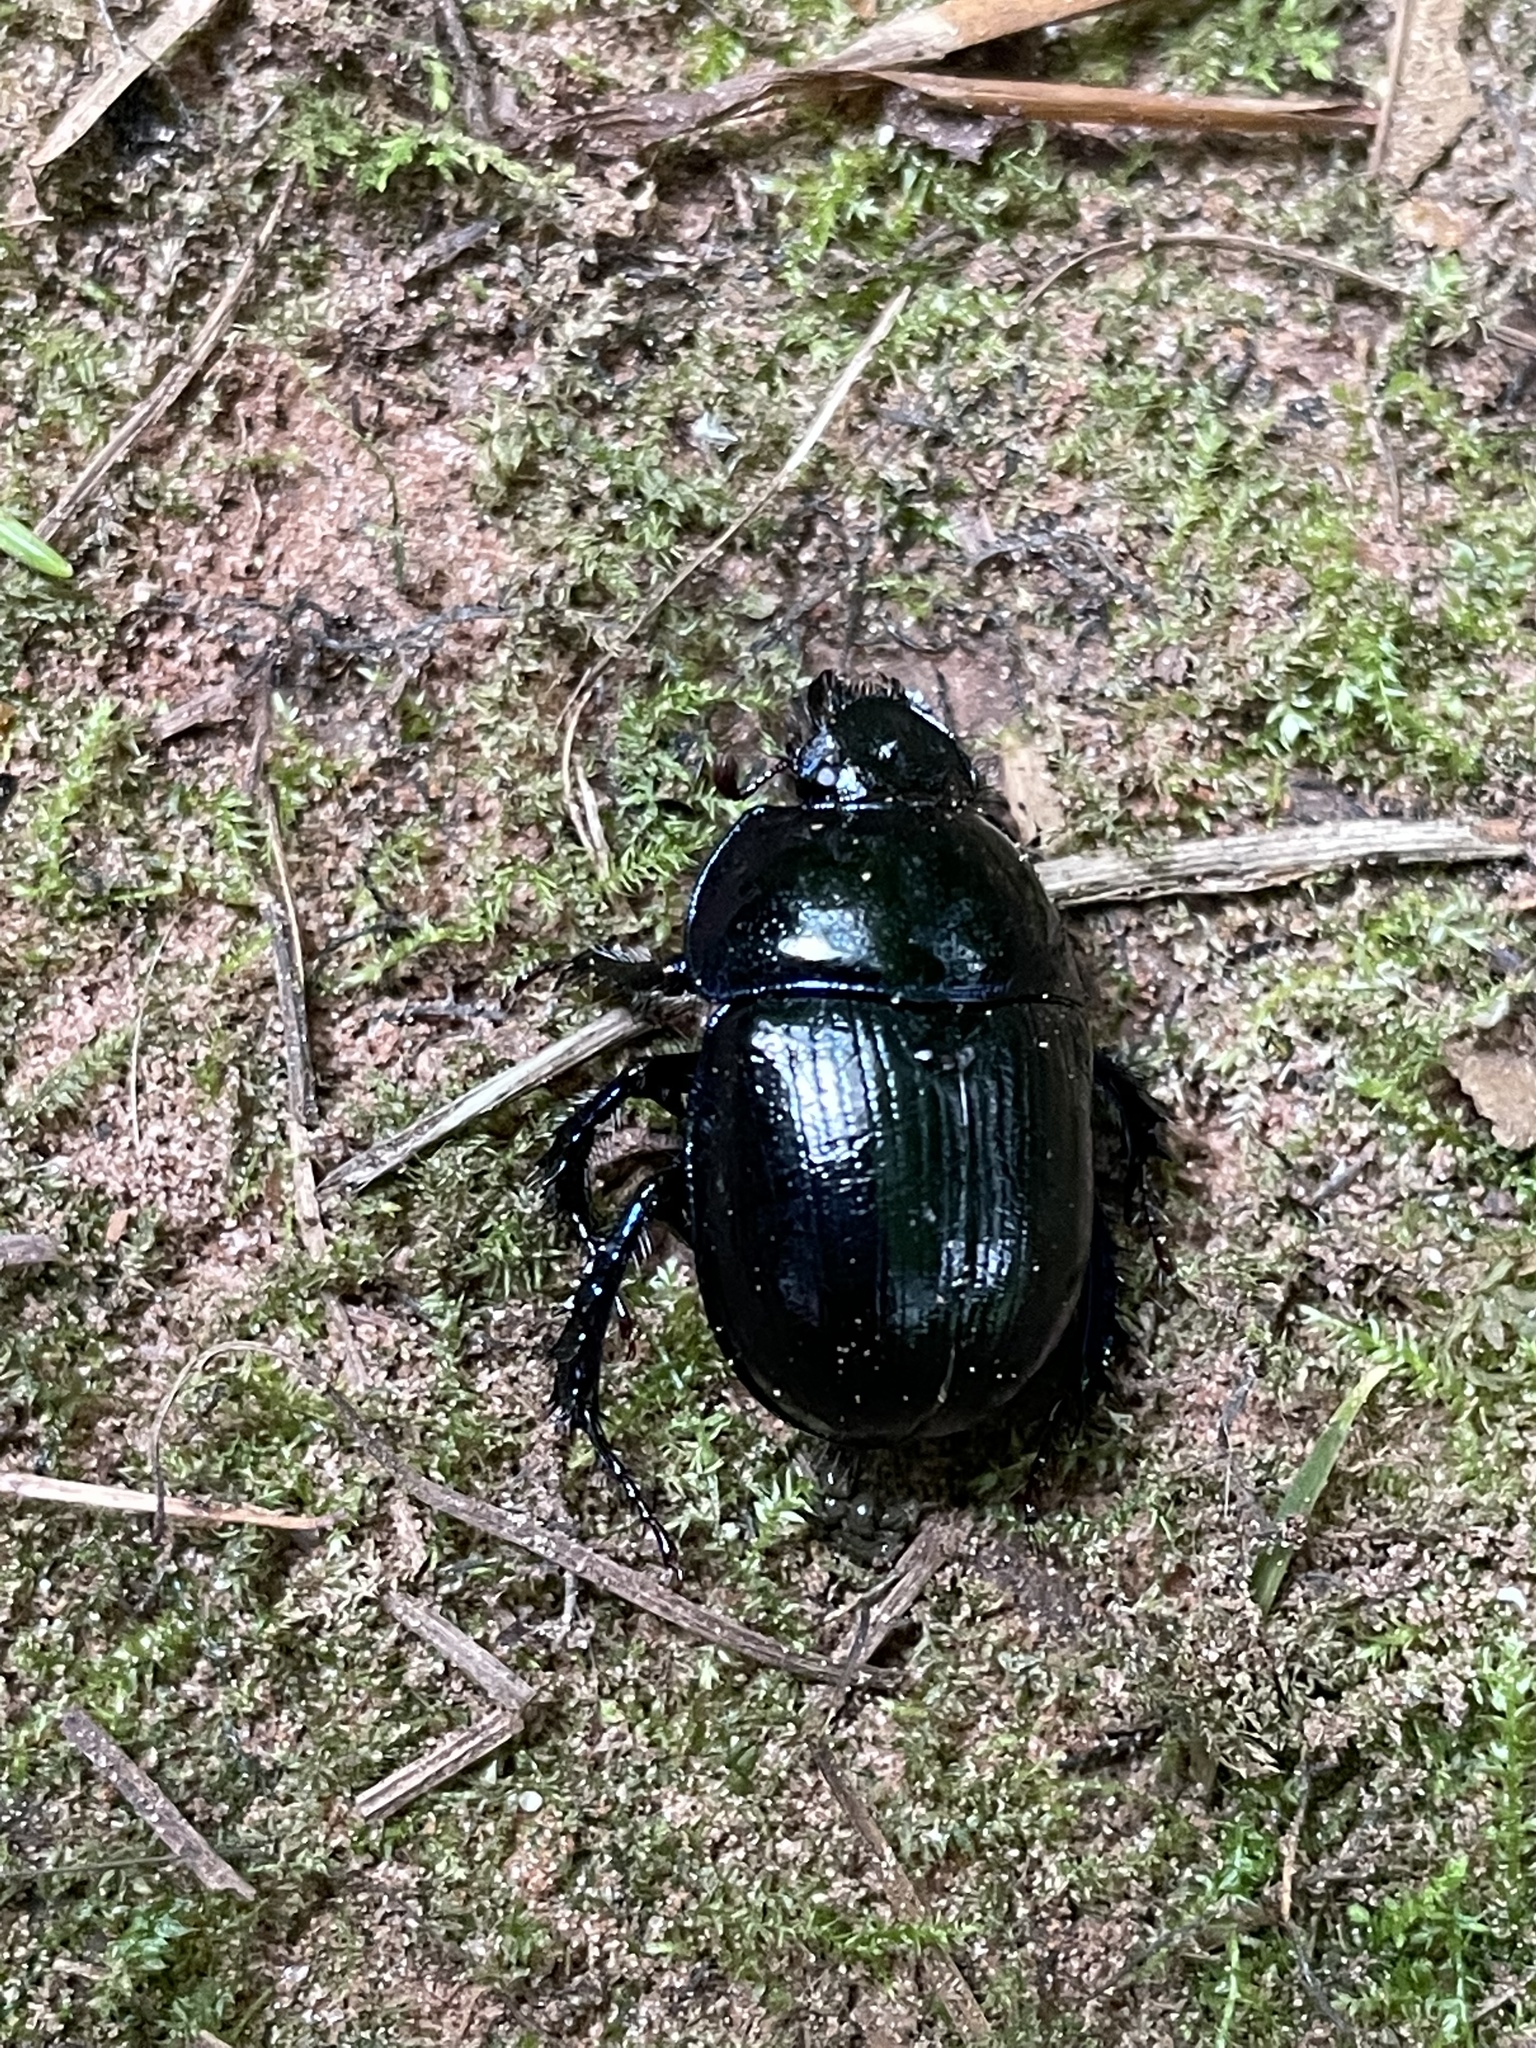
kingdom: Animalia
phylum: Arthropoda
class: Insecta
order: Coleoptera
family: Geotrupidae
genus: Anoplotrupes
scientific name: Anoplotrupes stercorosus
